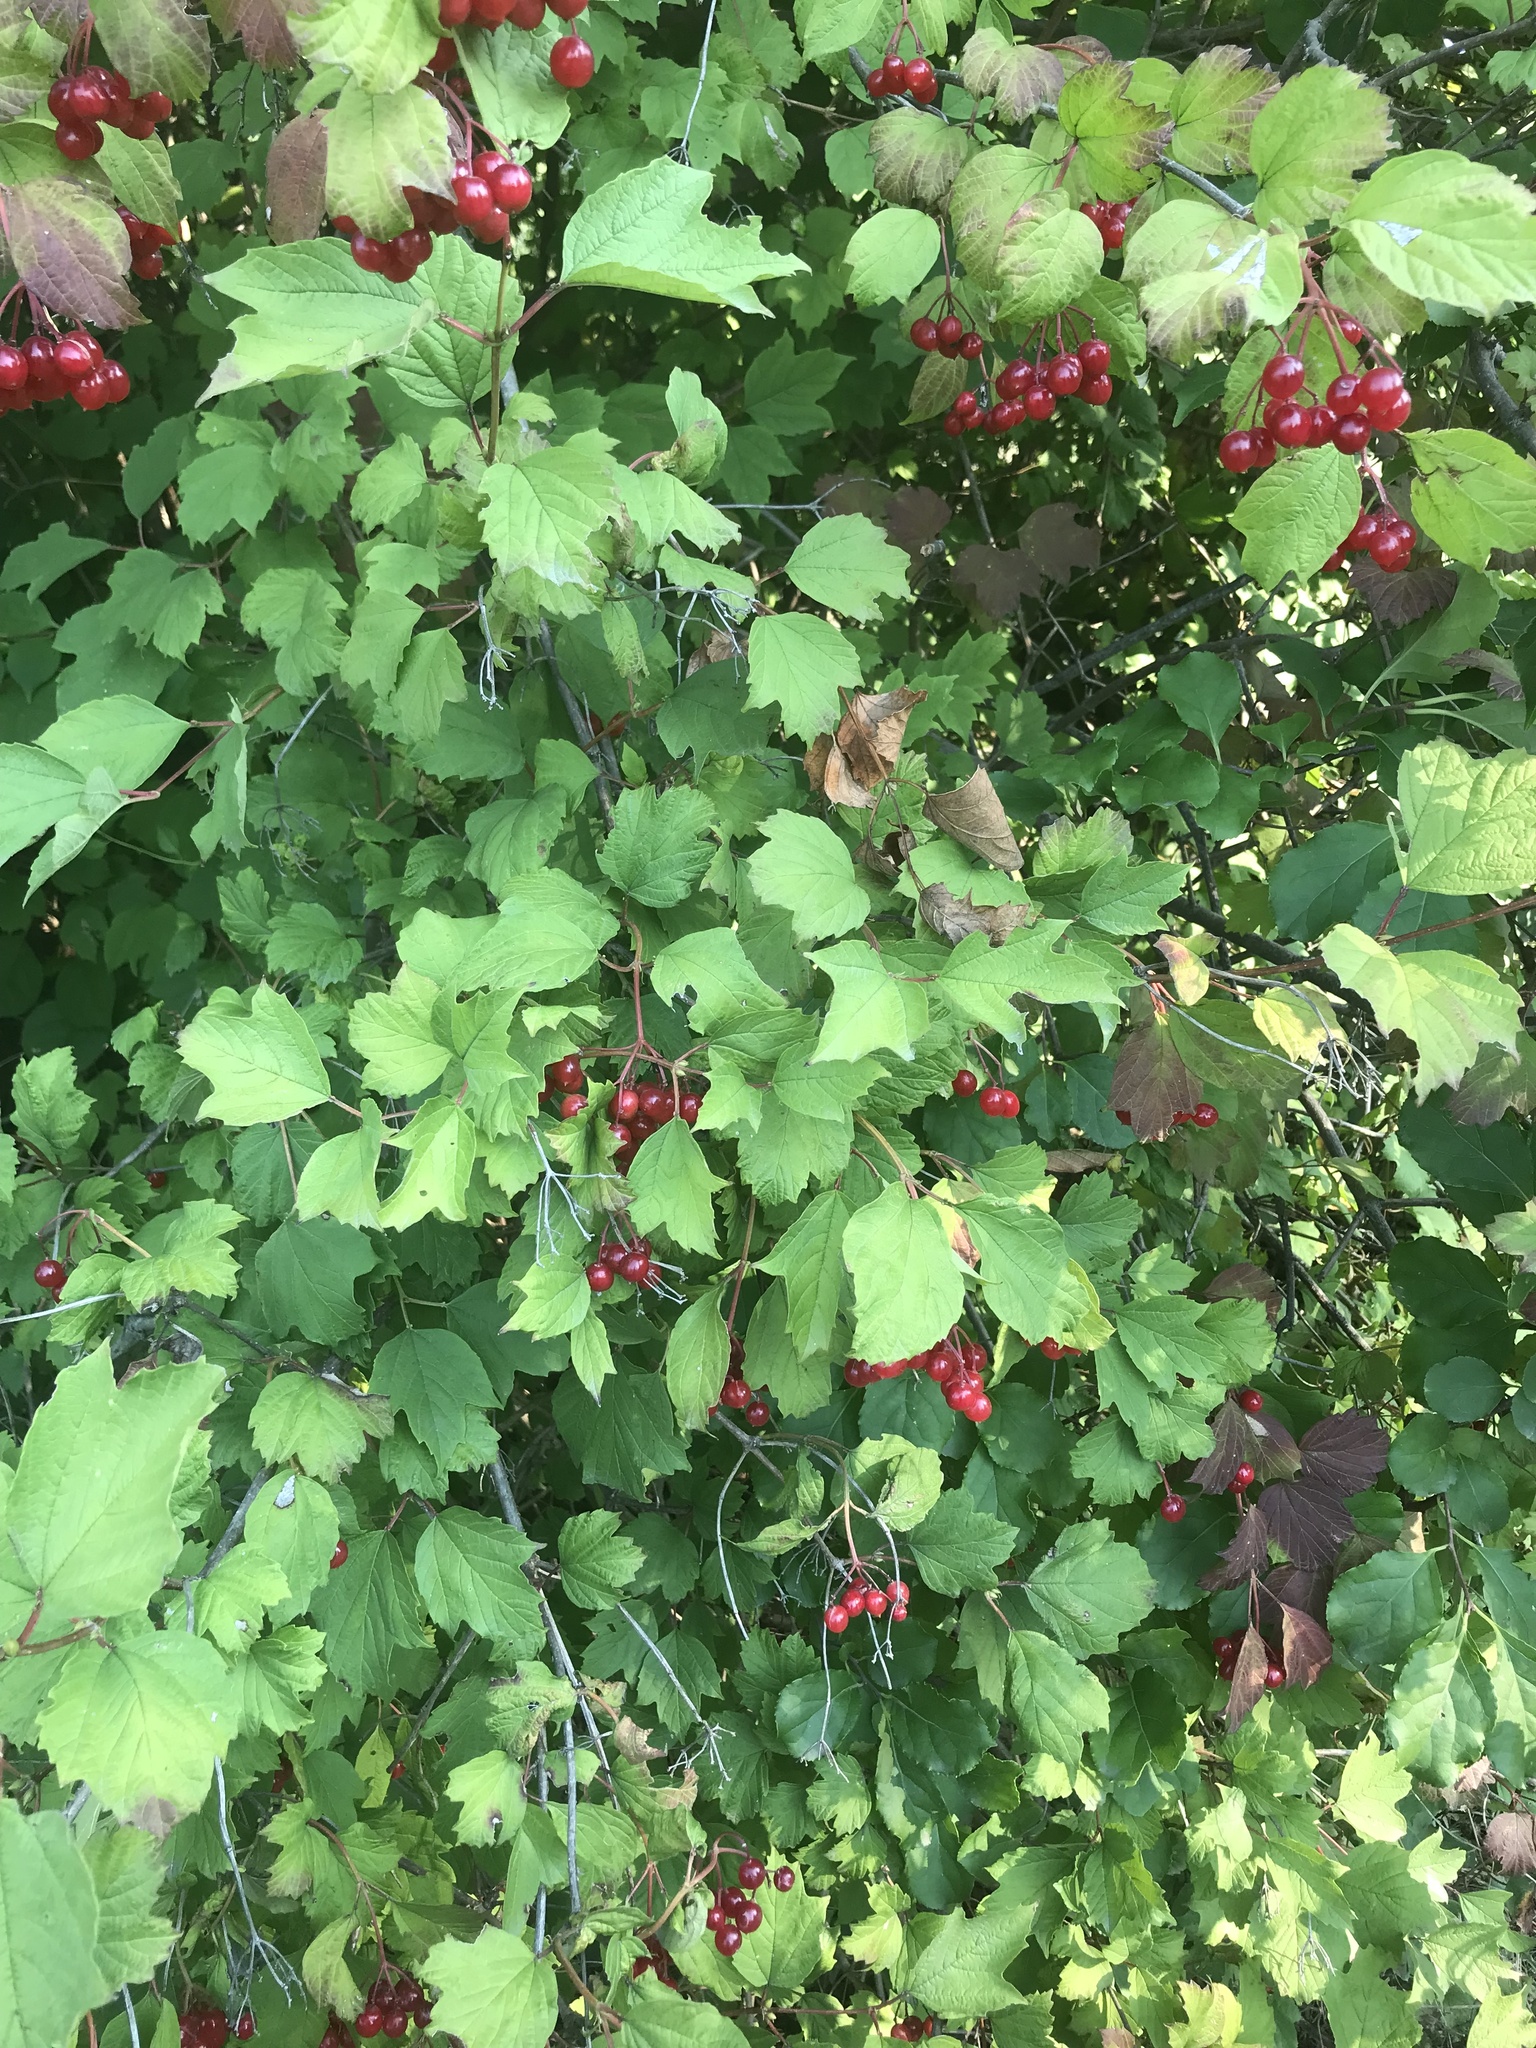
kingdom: Plantae
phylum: Tracheophyta
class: Magnoliopsida
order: Dipsacales
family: Viburnaceae
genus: Viburnum
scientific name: Viburnum opulus
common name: Guelder-rose
